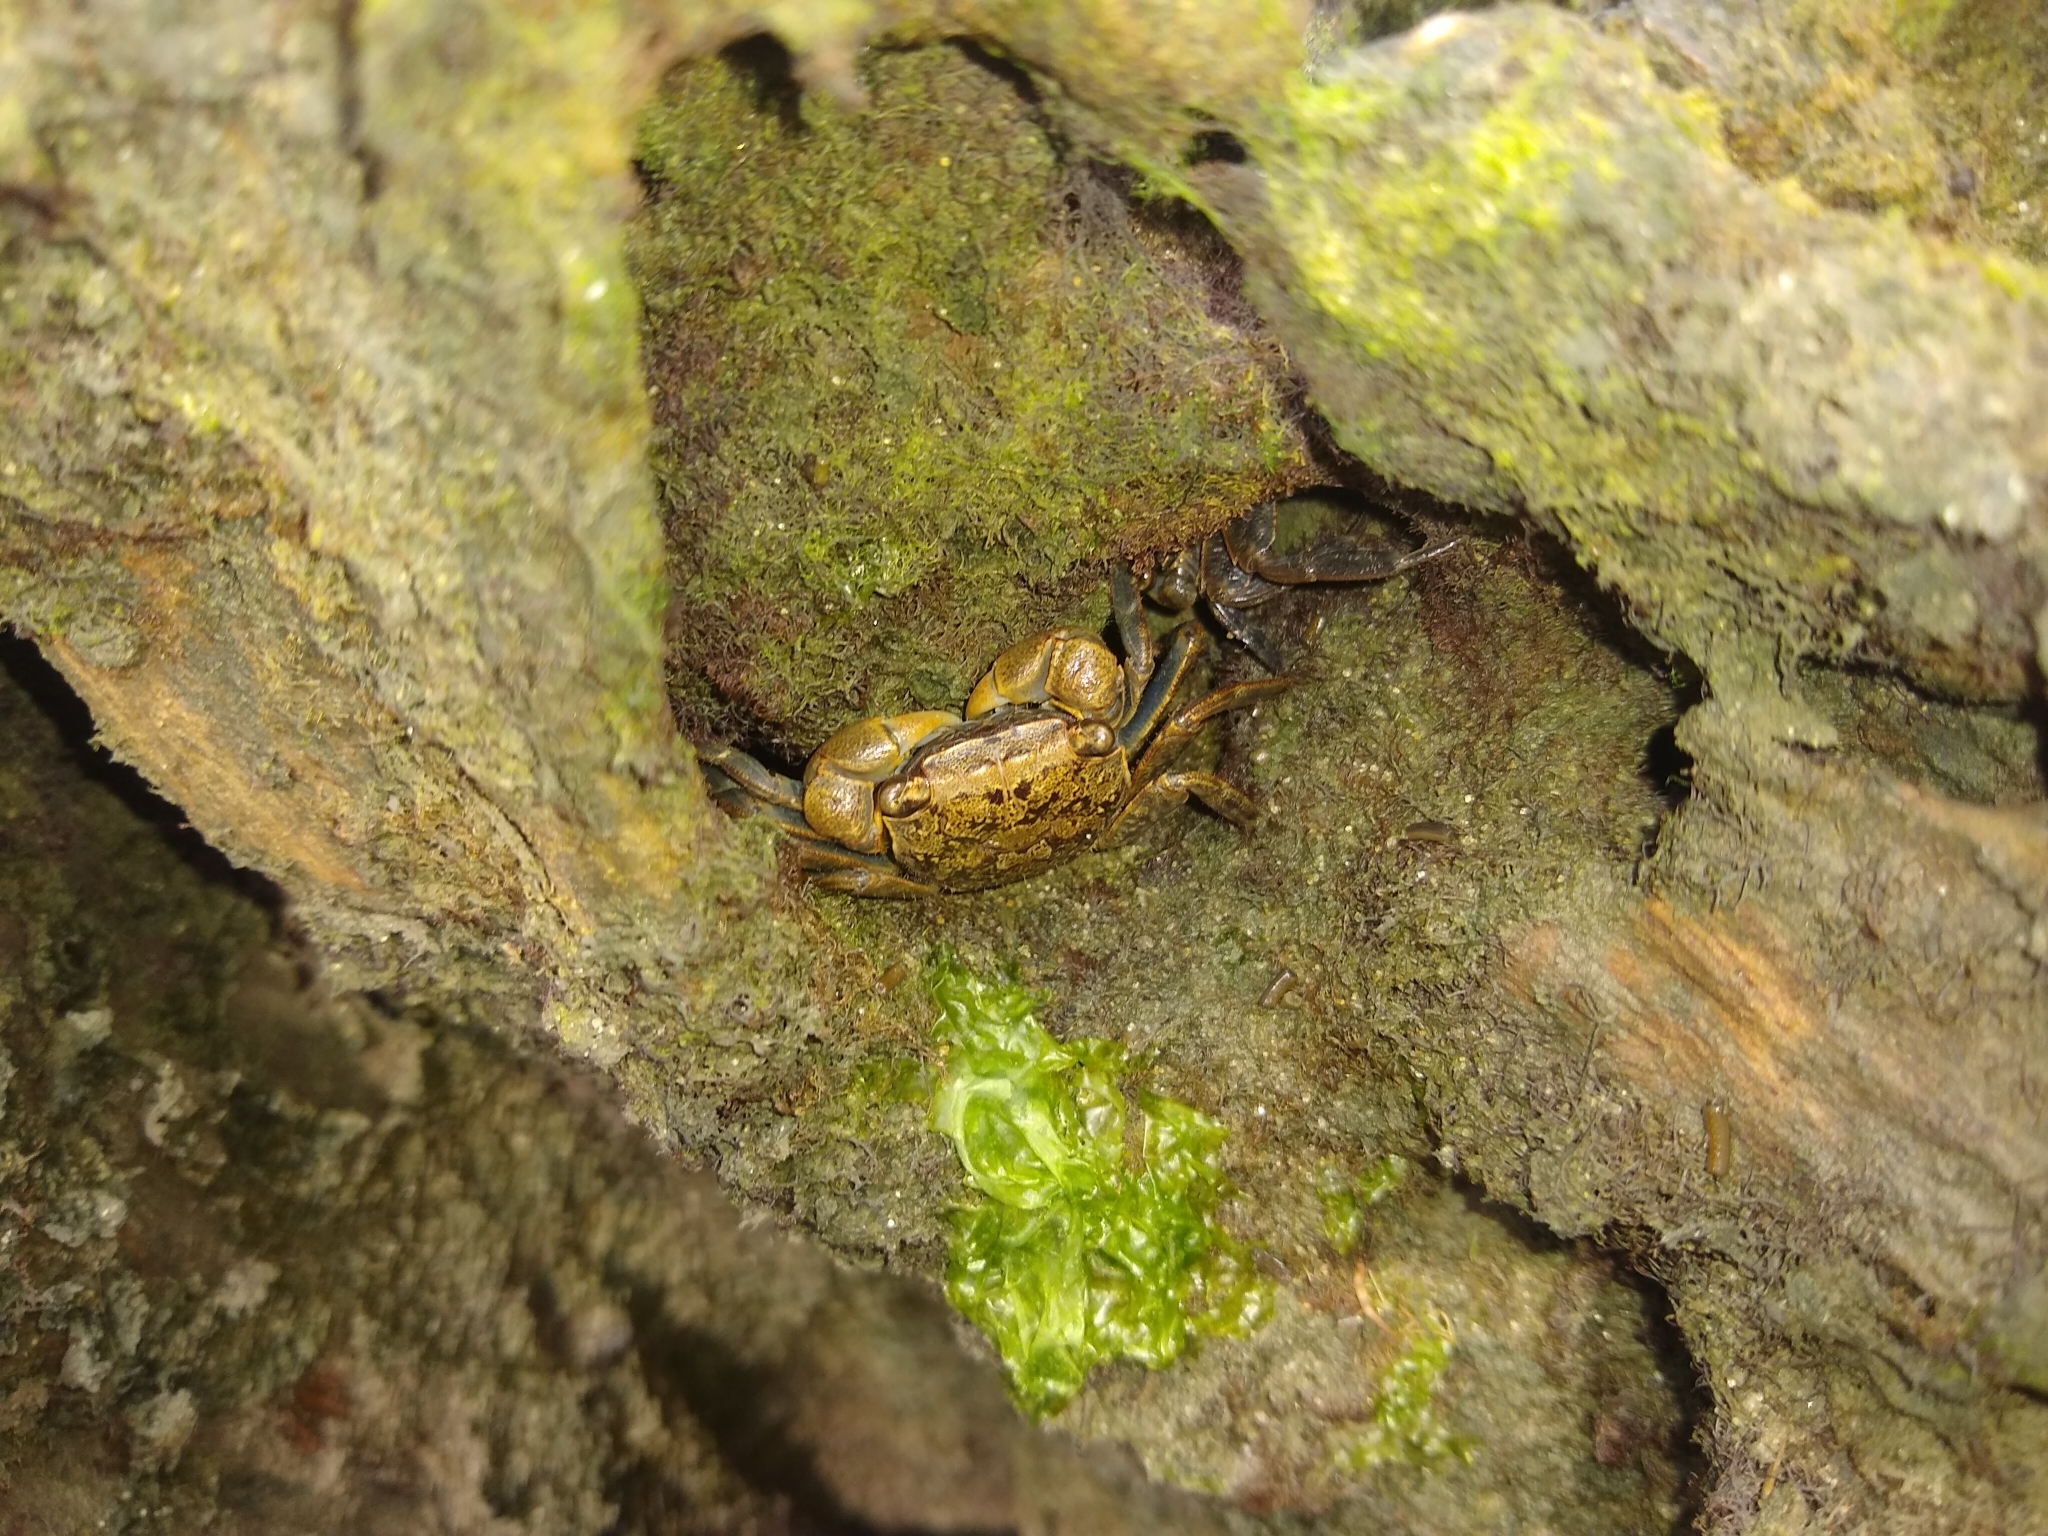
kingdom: Animalia
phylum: Arthropoda
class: Malacostraca
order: Decapoda
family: Sesarmidae
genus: Armases
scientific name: Armases cinereum
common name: Squareback marsh crab
